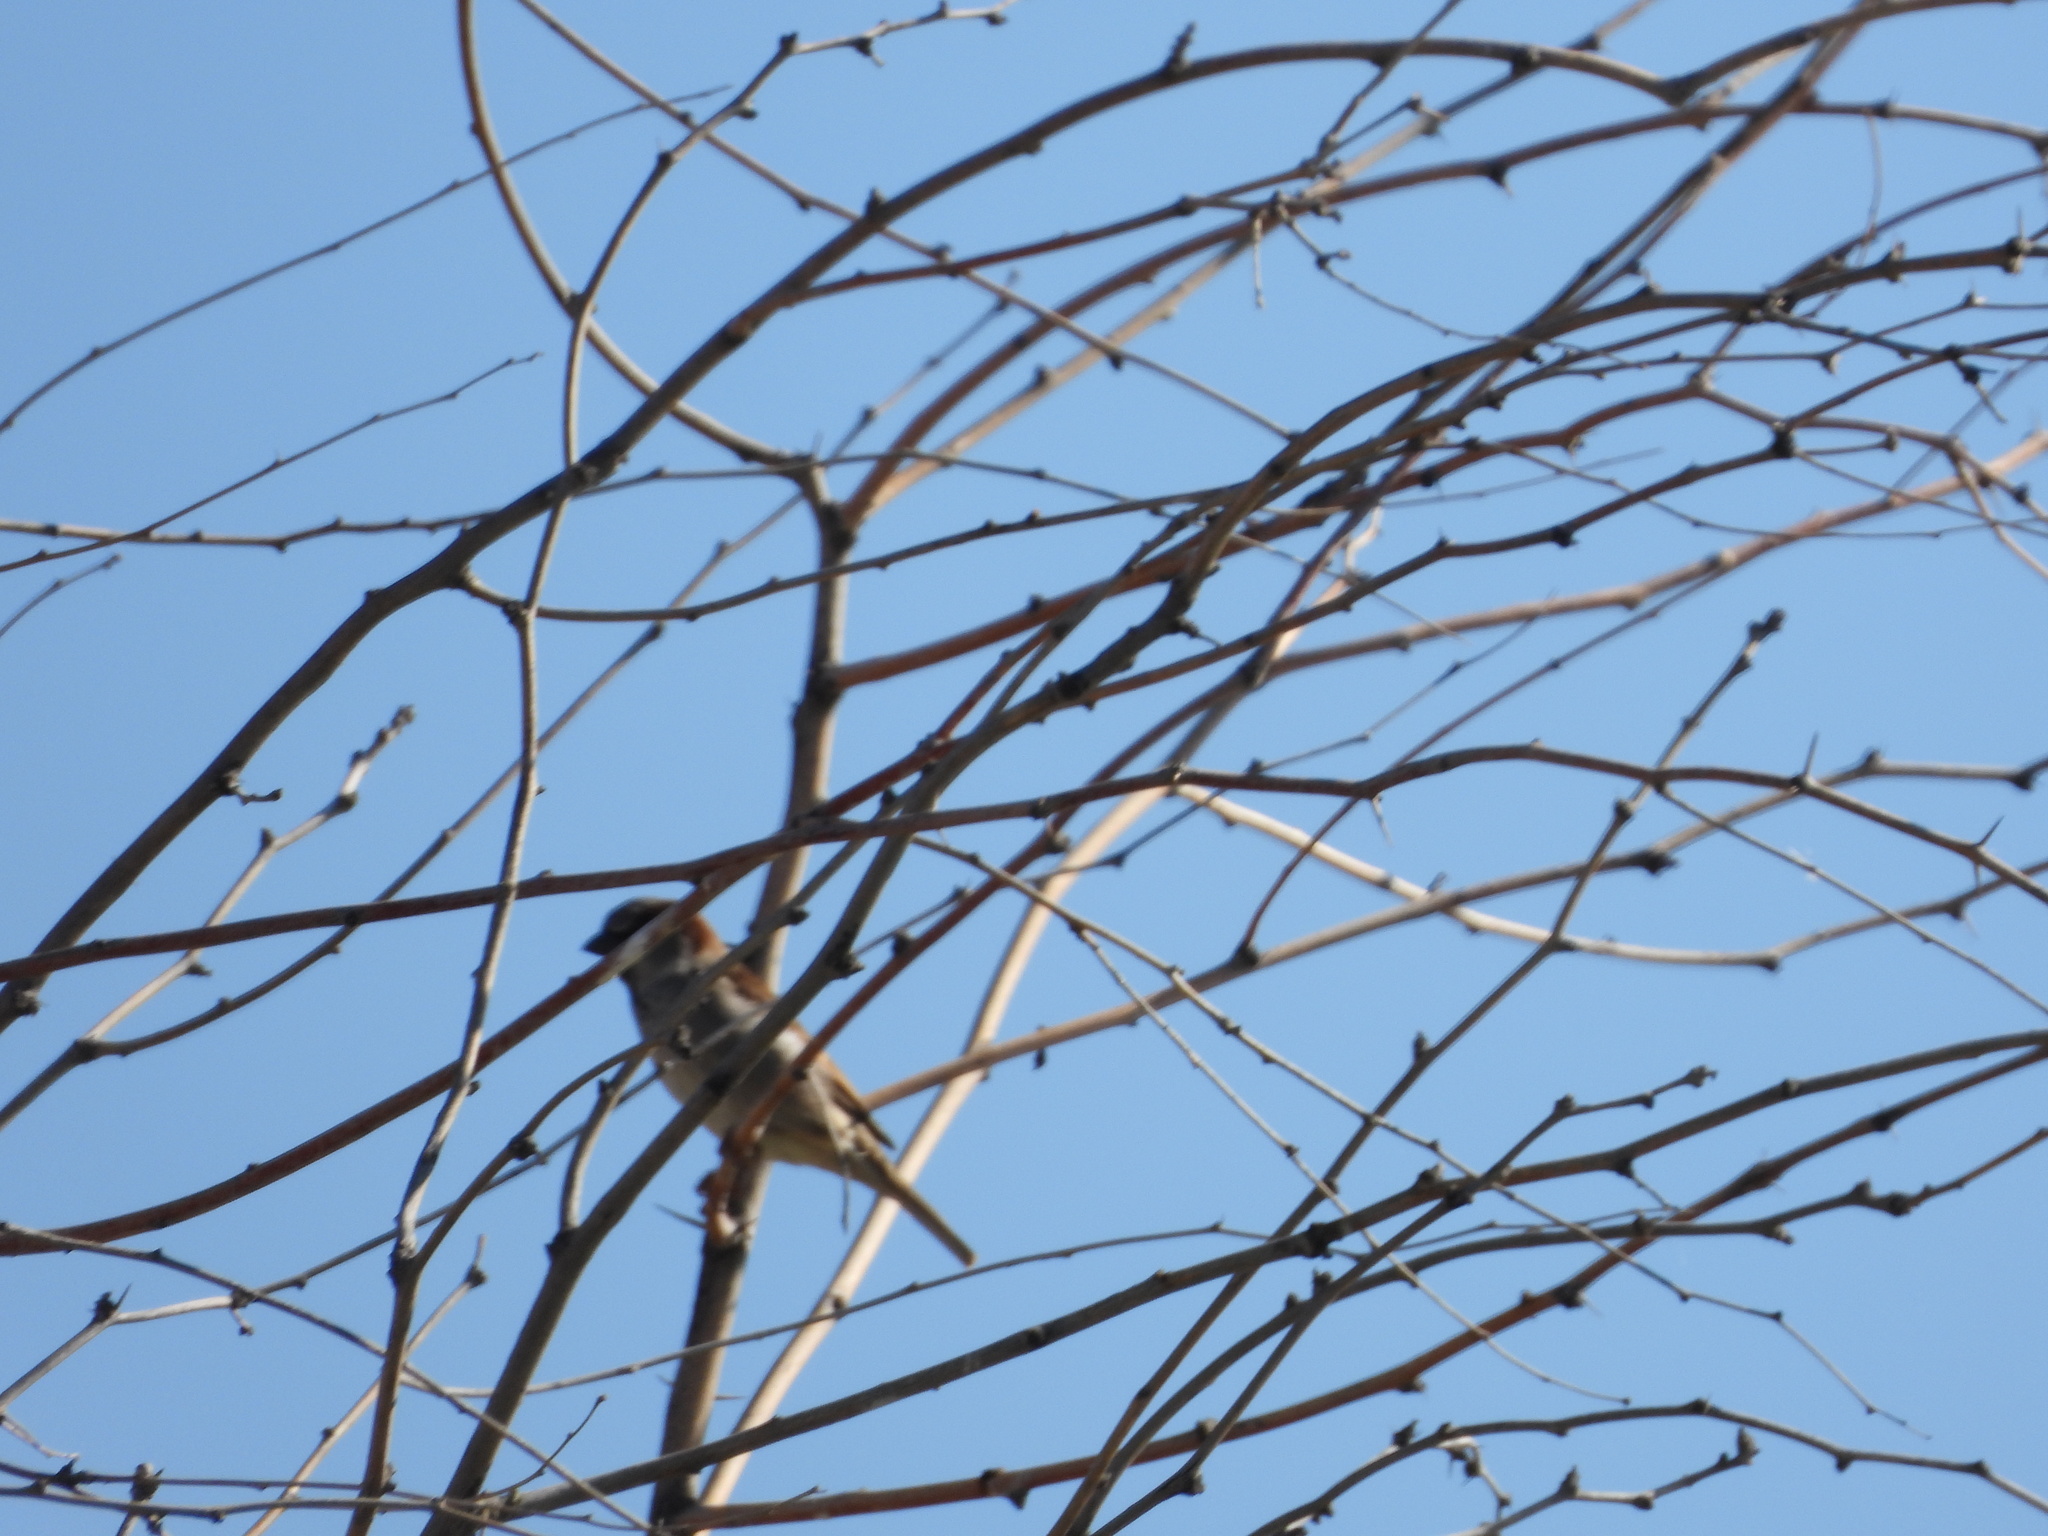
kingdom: Animalia
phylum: Chordata
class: Aves
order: Passeriformes
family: Passeridae
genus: Passer
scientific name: Passer domesticus
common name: House sparrow
